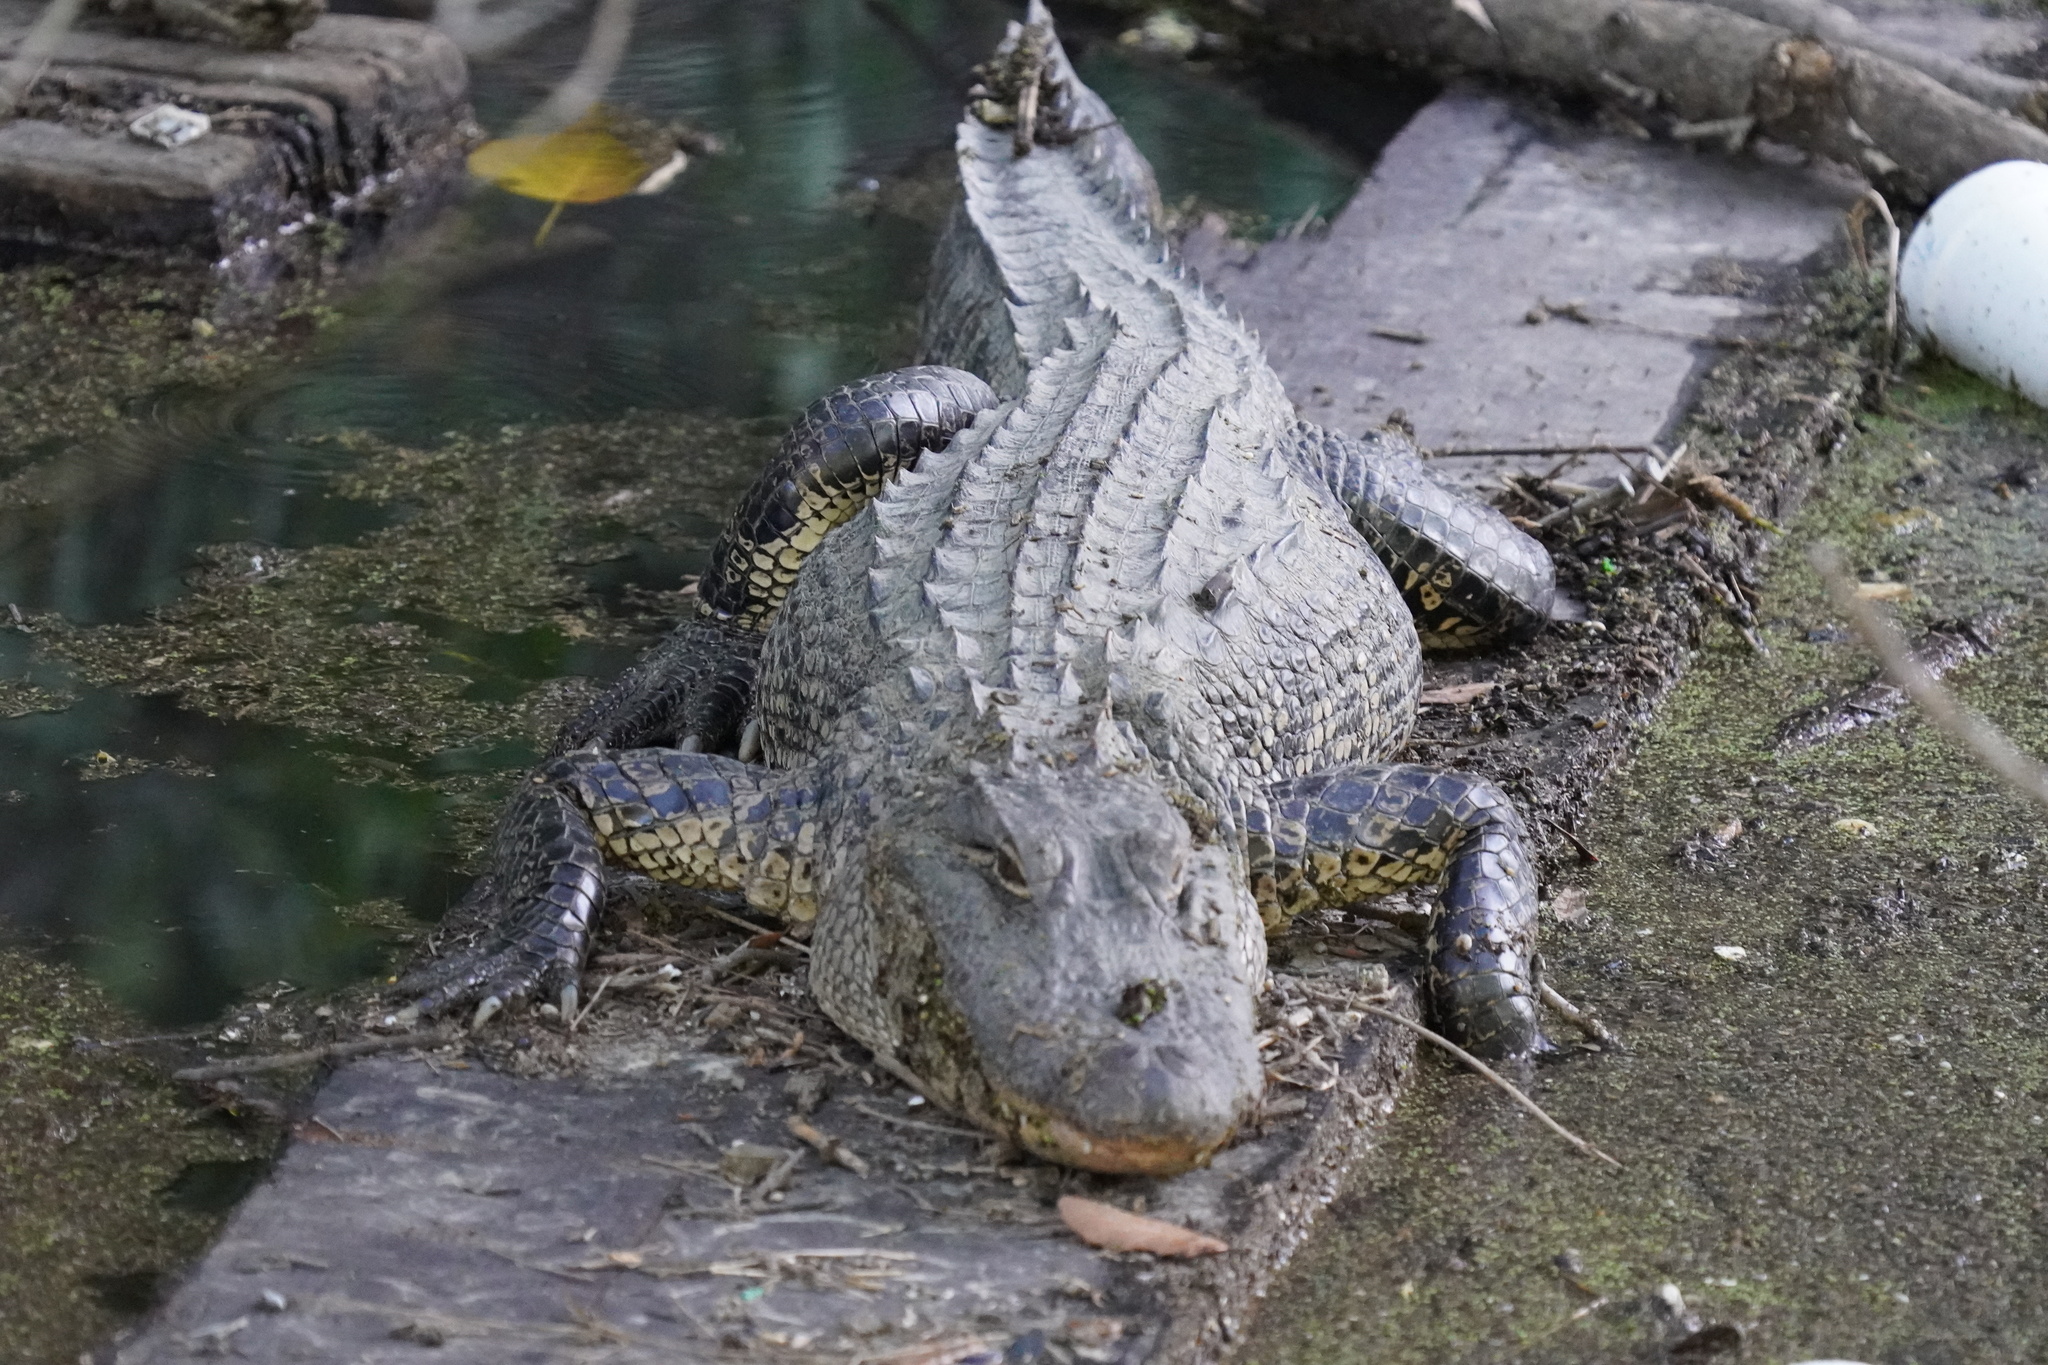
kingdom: Animalia
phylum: Chordata
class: Crocodylia
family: Alligatoridae
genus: Alligator
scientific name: Alligator mississippiensis
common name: American alligator
